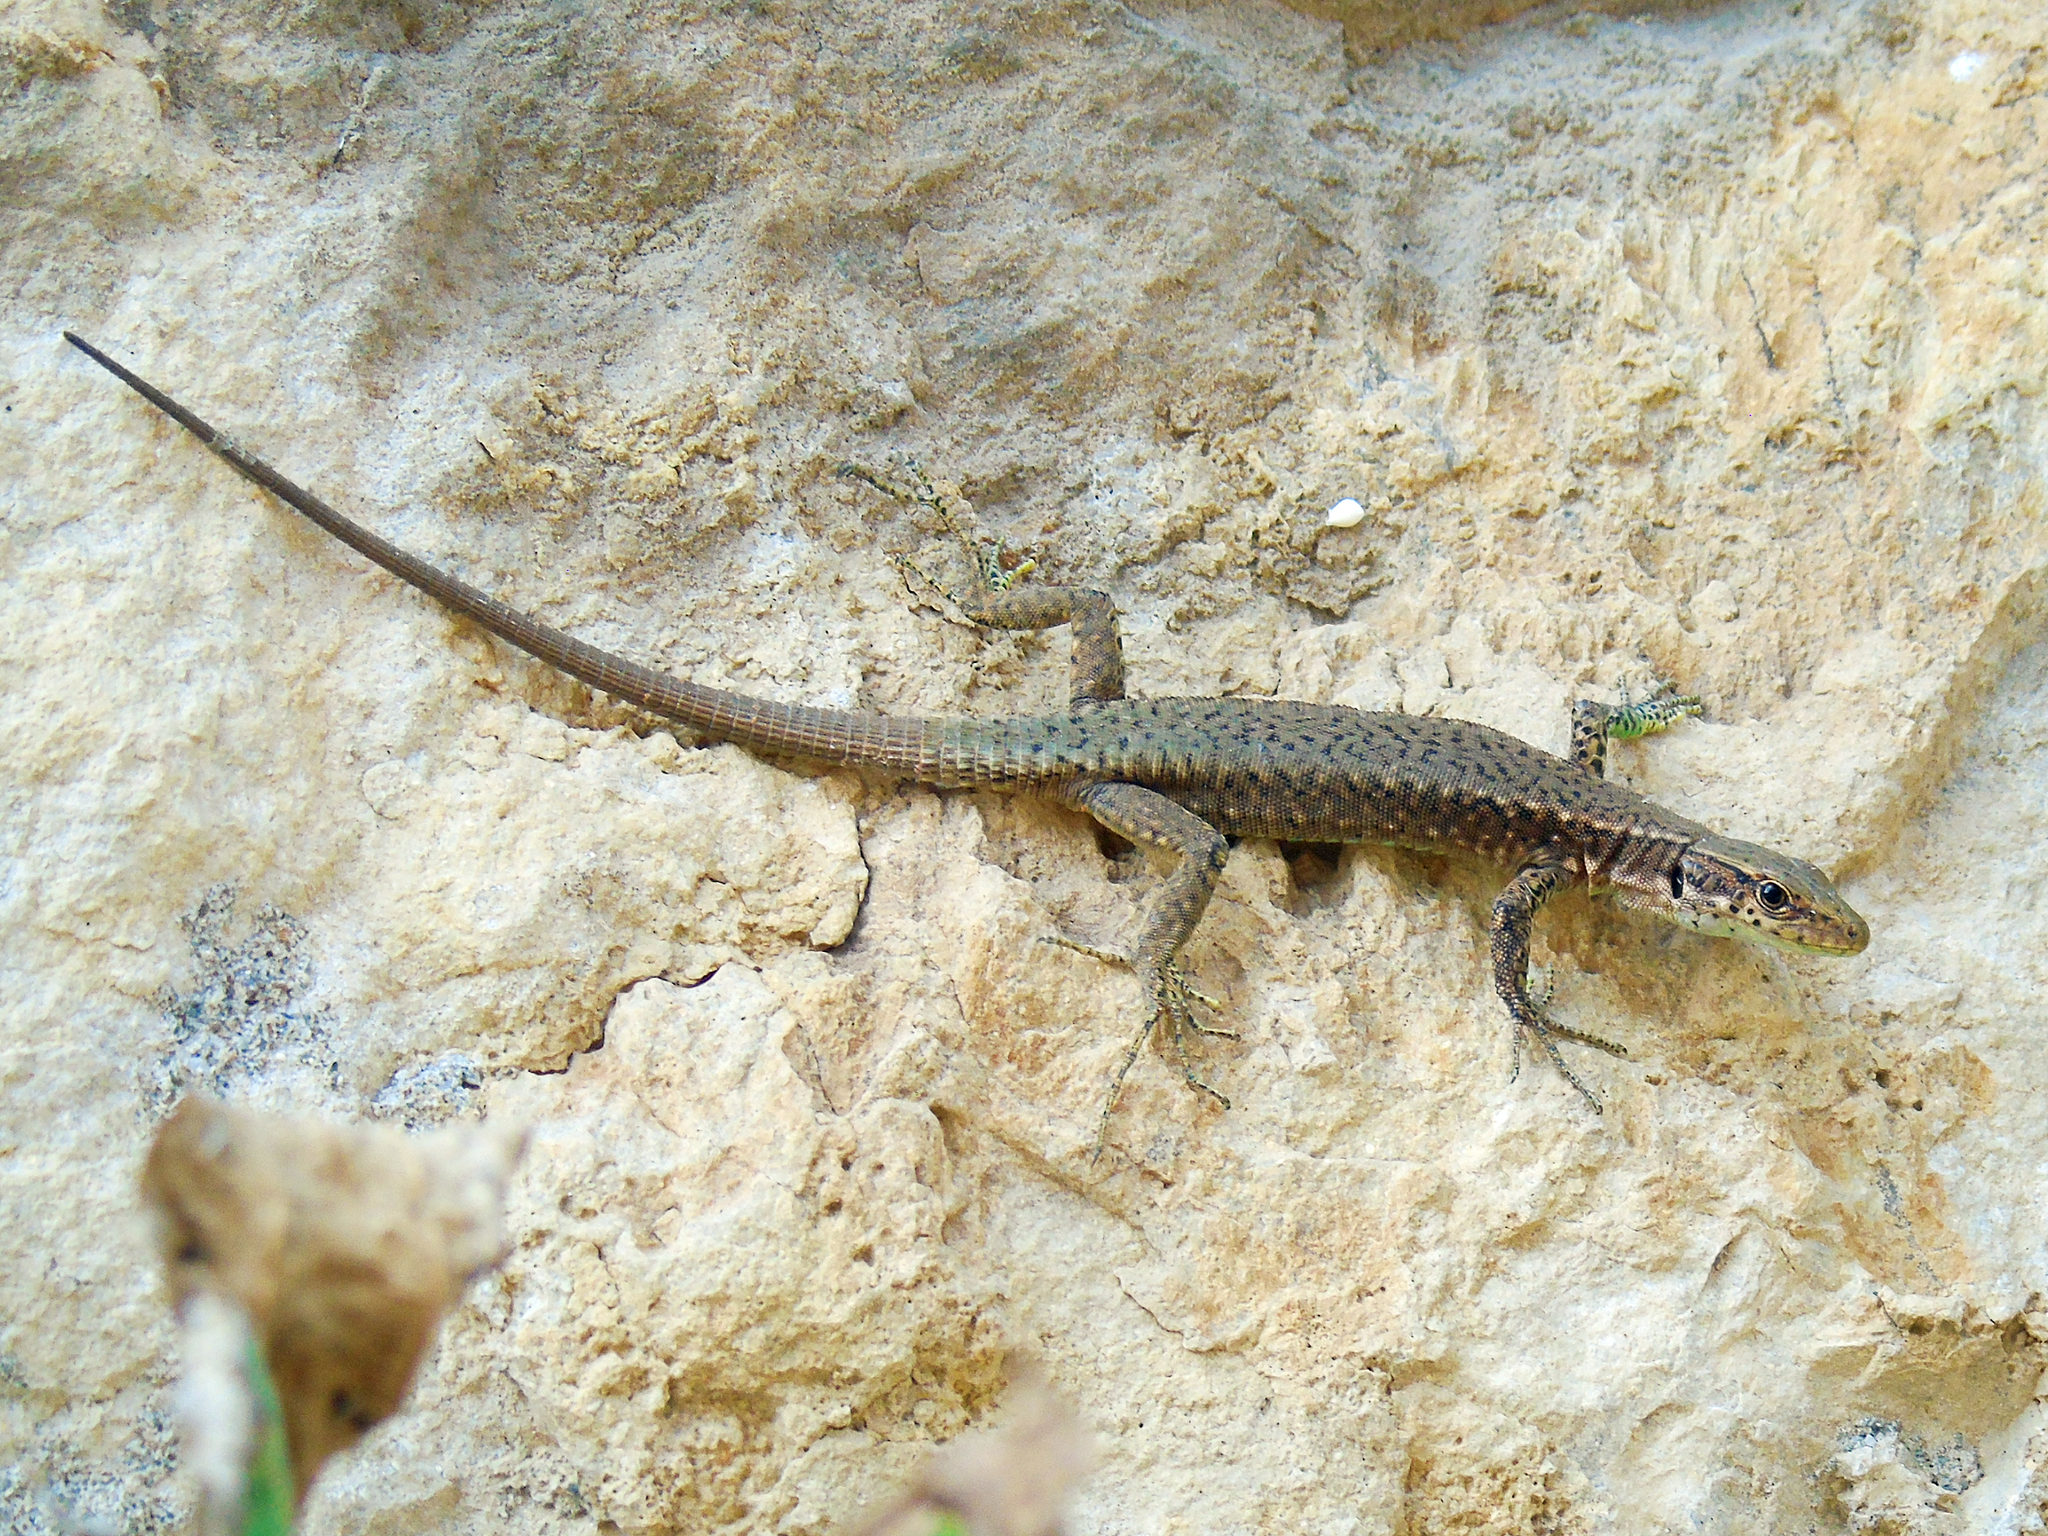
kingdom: Animalia
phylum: Chordata
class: Squamata
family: Lacertidae
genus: Darevskia
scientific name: Darevskia rudis
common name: Spiny-tailed lizard
